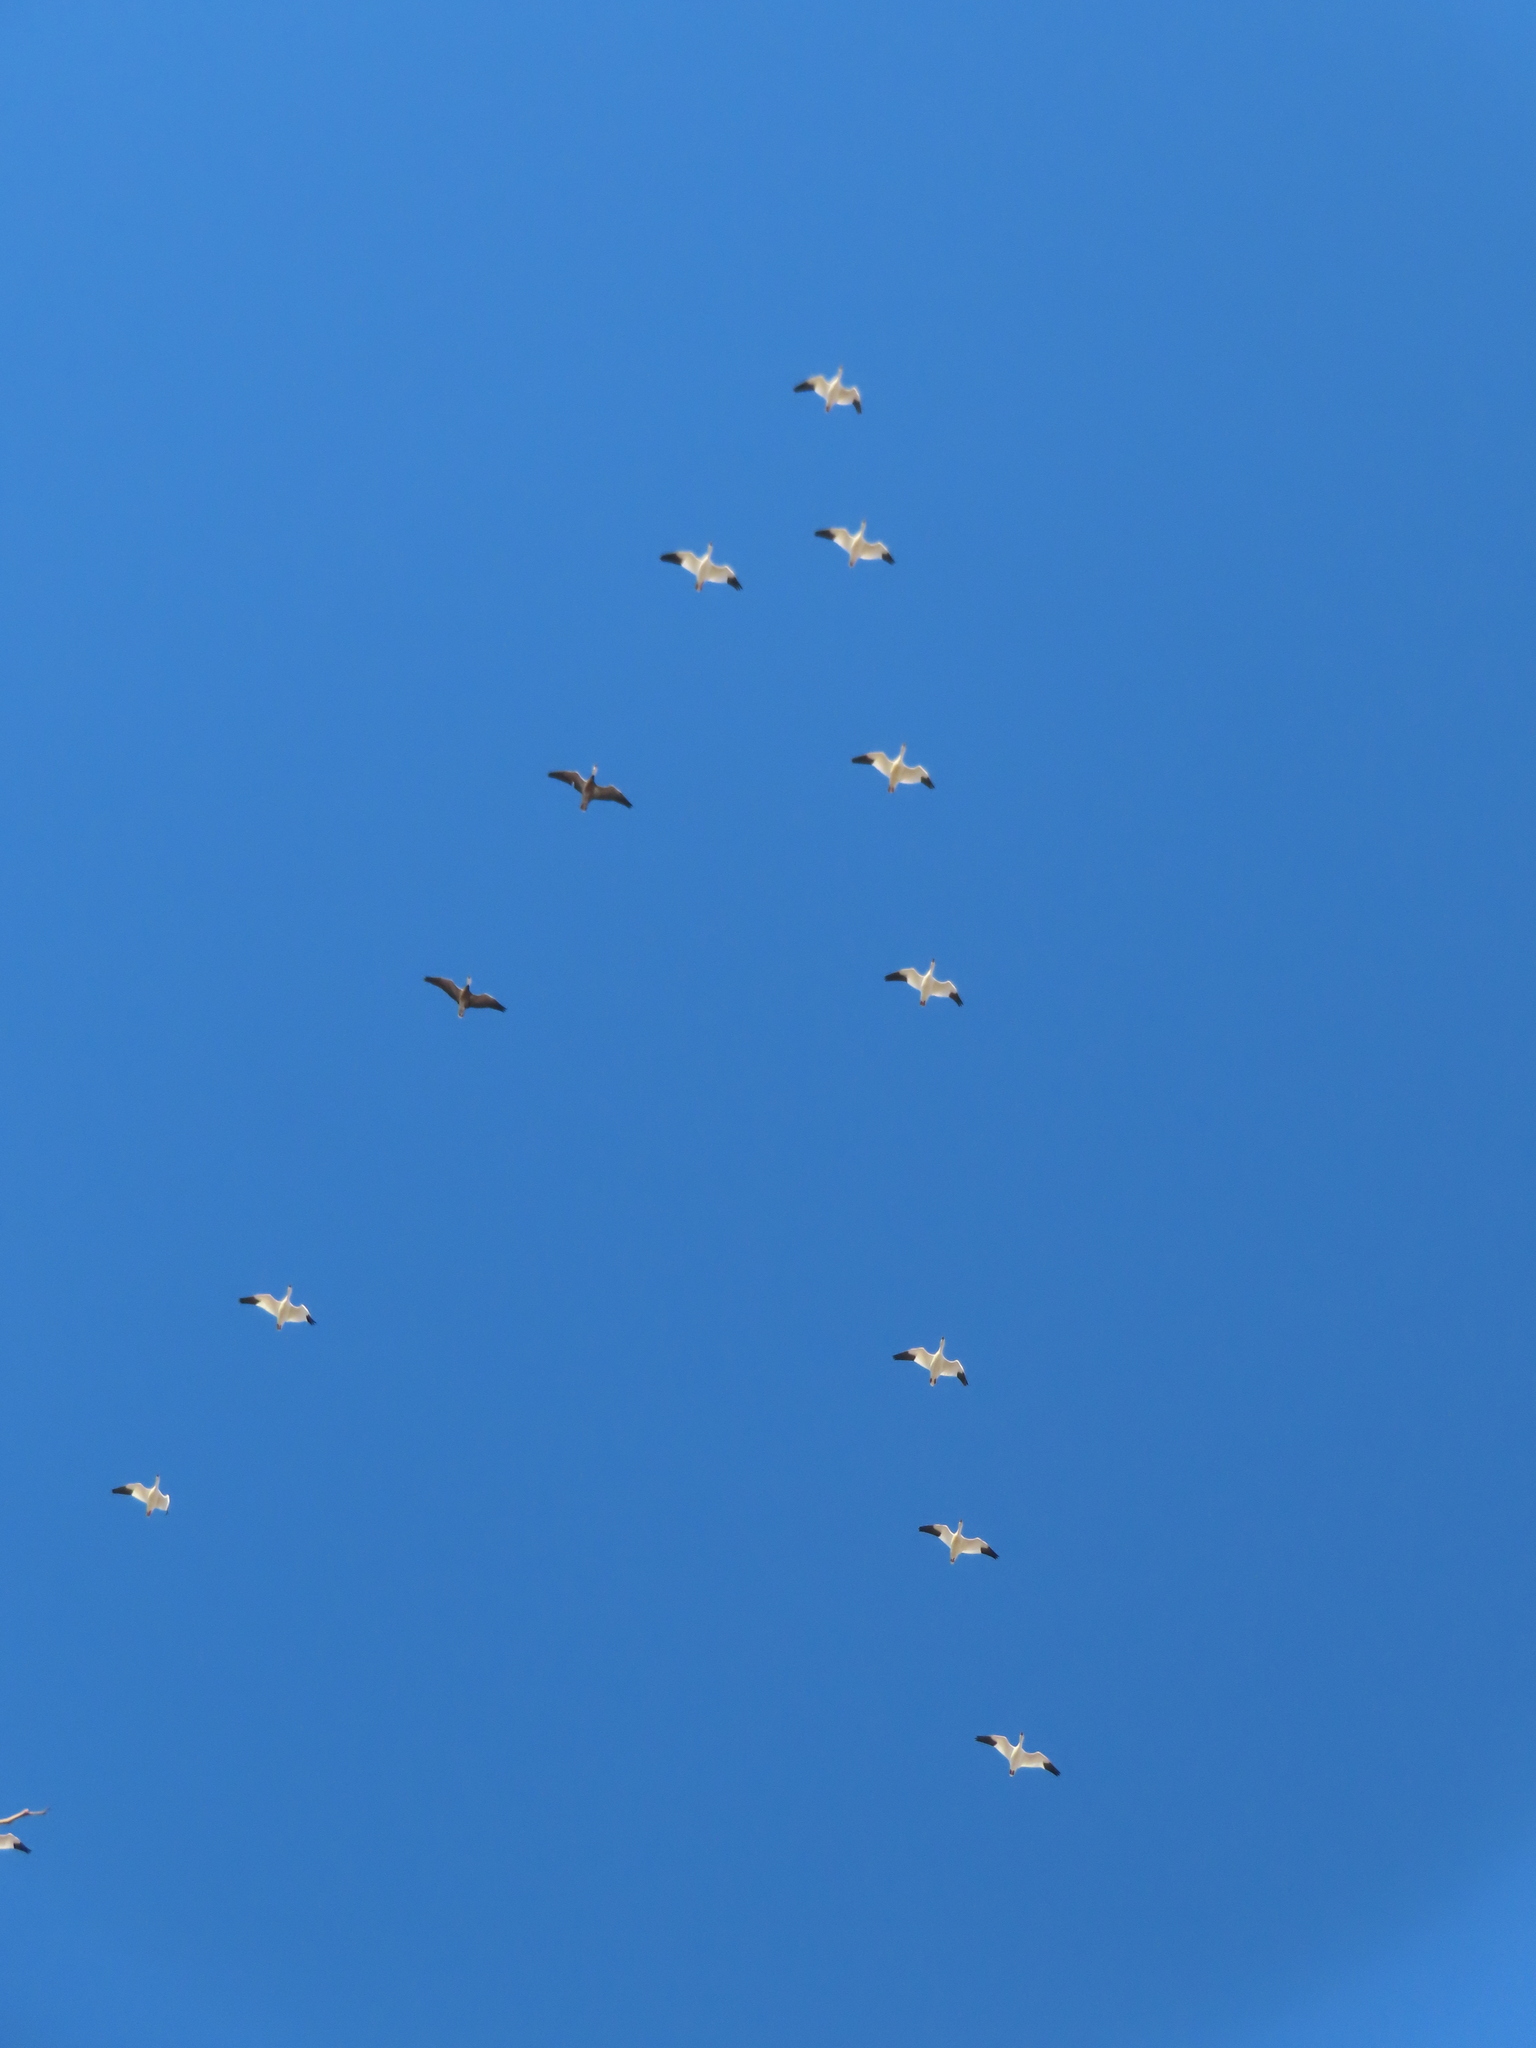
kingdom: Animalia
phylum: Chordata
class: Aves
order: Anseriformes
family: Anatidae
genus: Anser
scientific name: Anser caerulescens
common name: Snow goose
